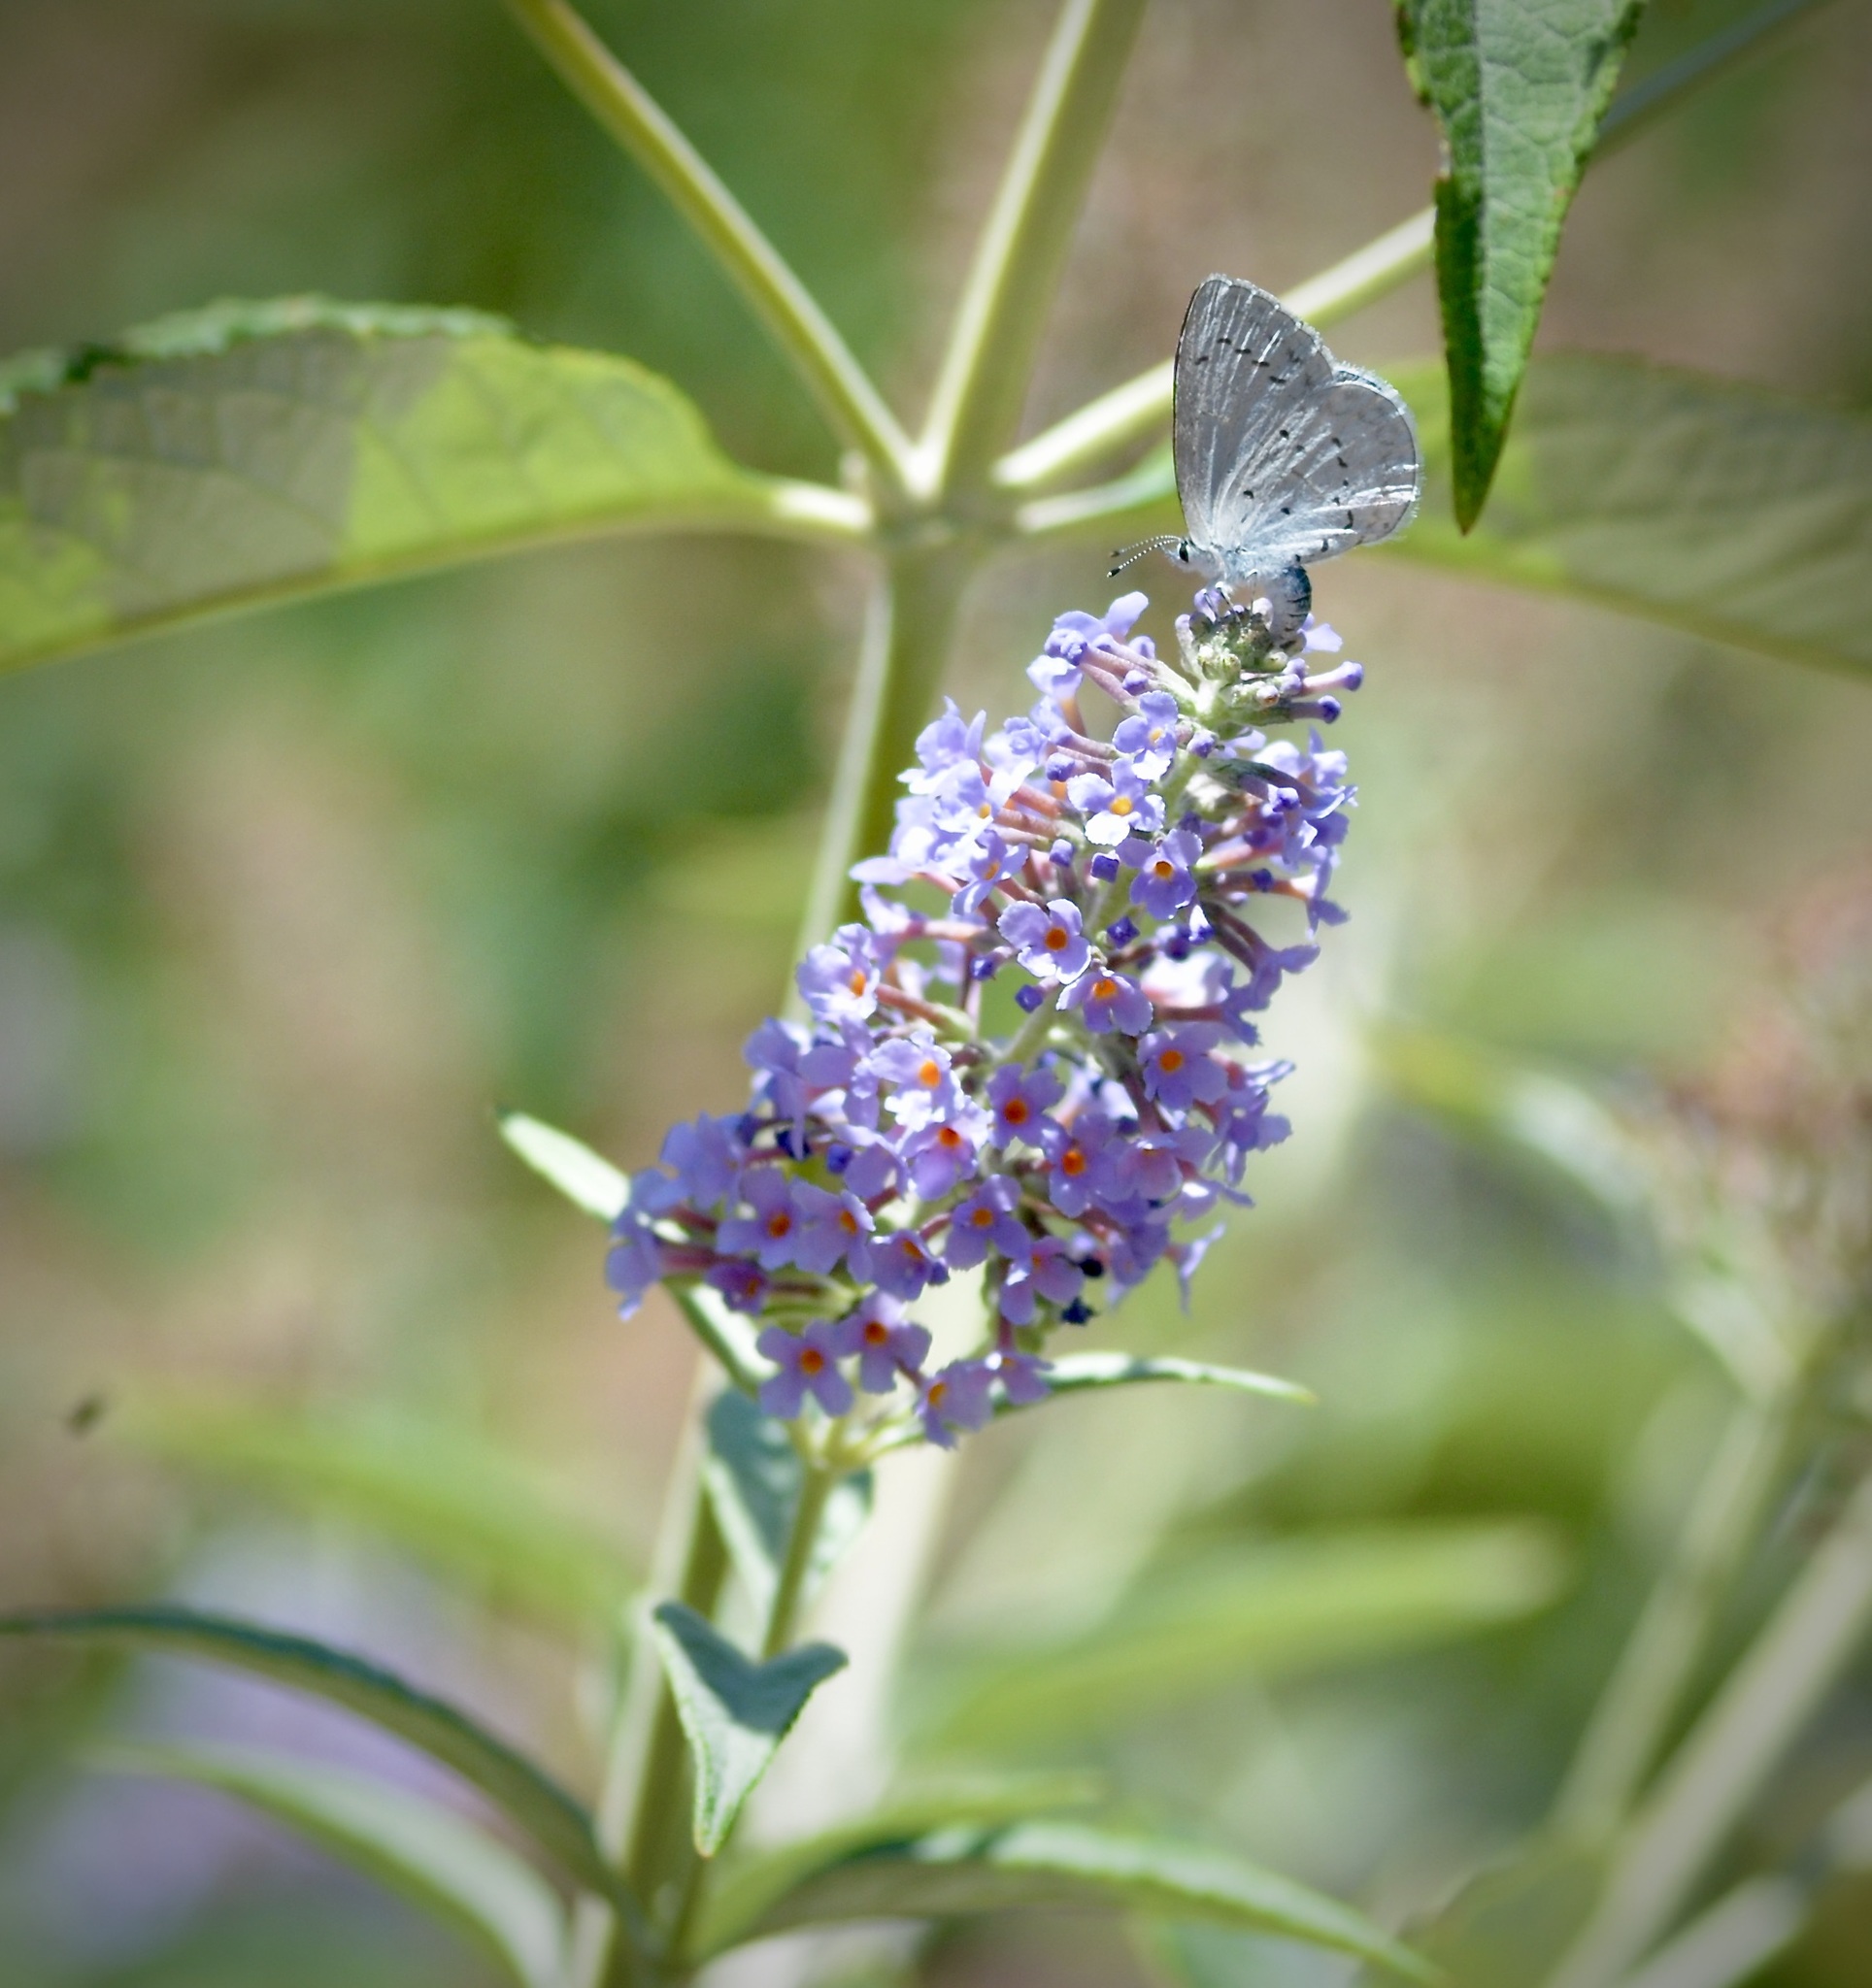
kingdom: Animalia
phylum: Arthropoda
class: Insecta
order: Lepidoptera
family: Lycaenidae
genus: Celastrina
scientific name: Celastrina ladon
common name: Spring azure
